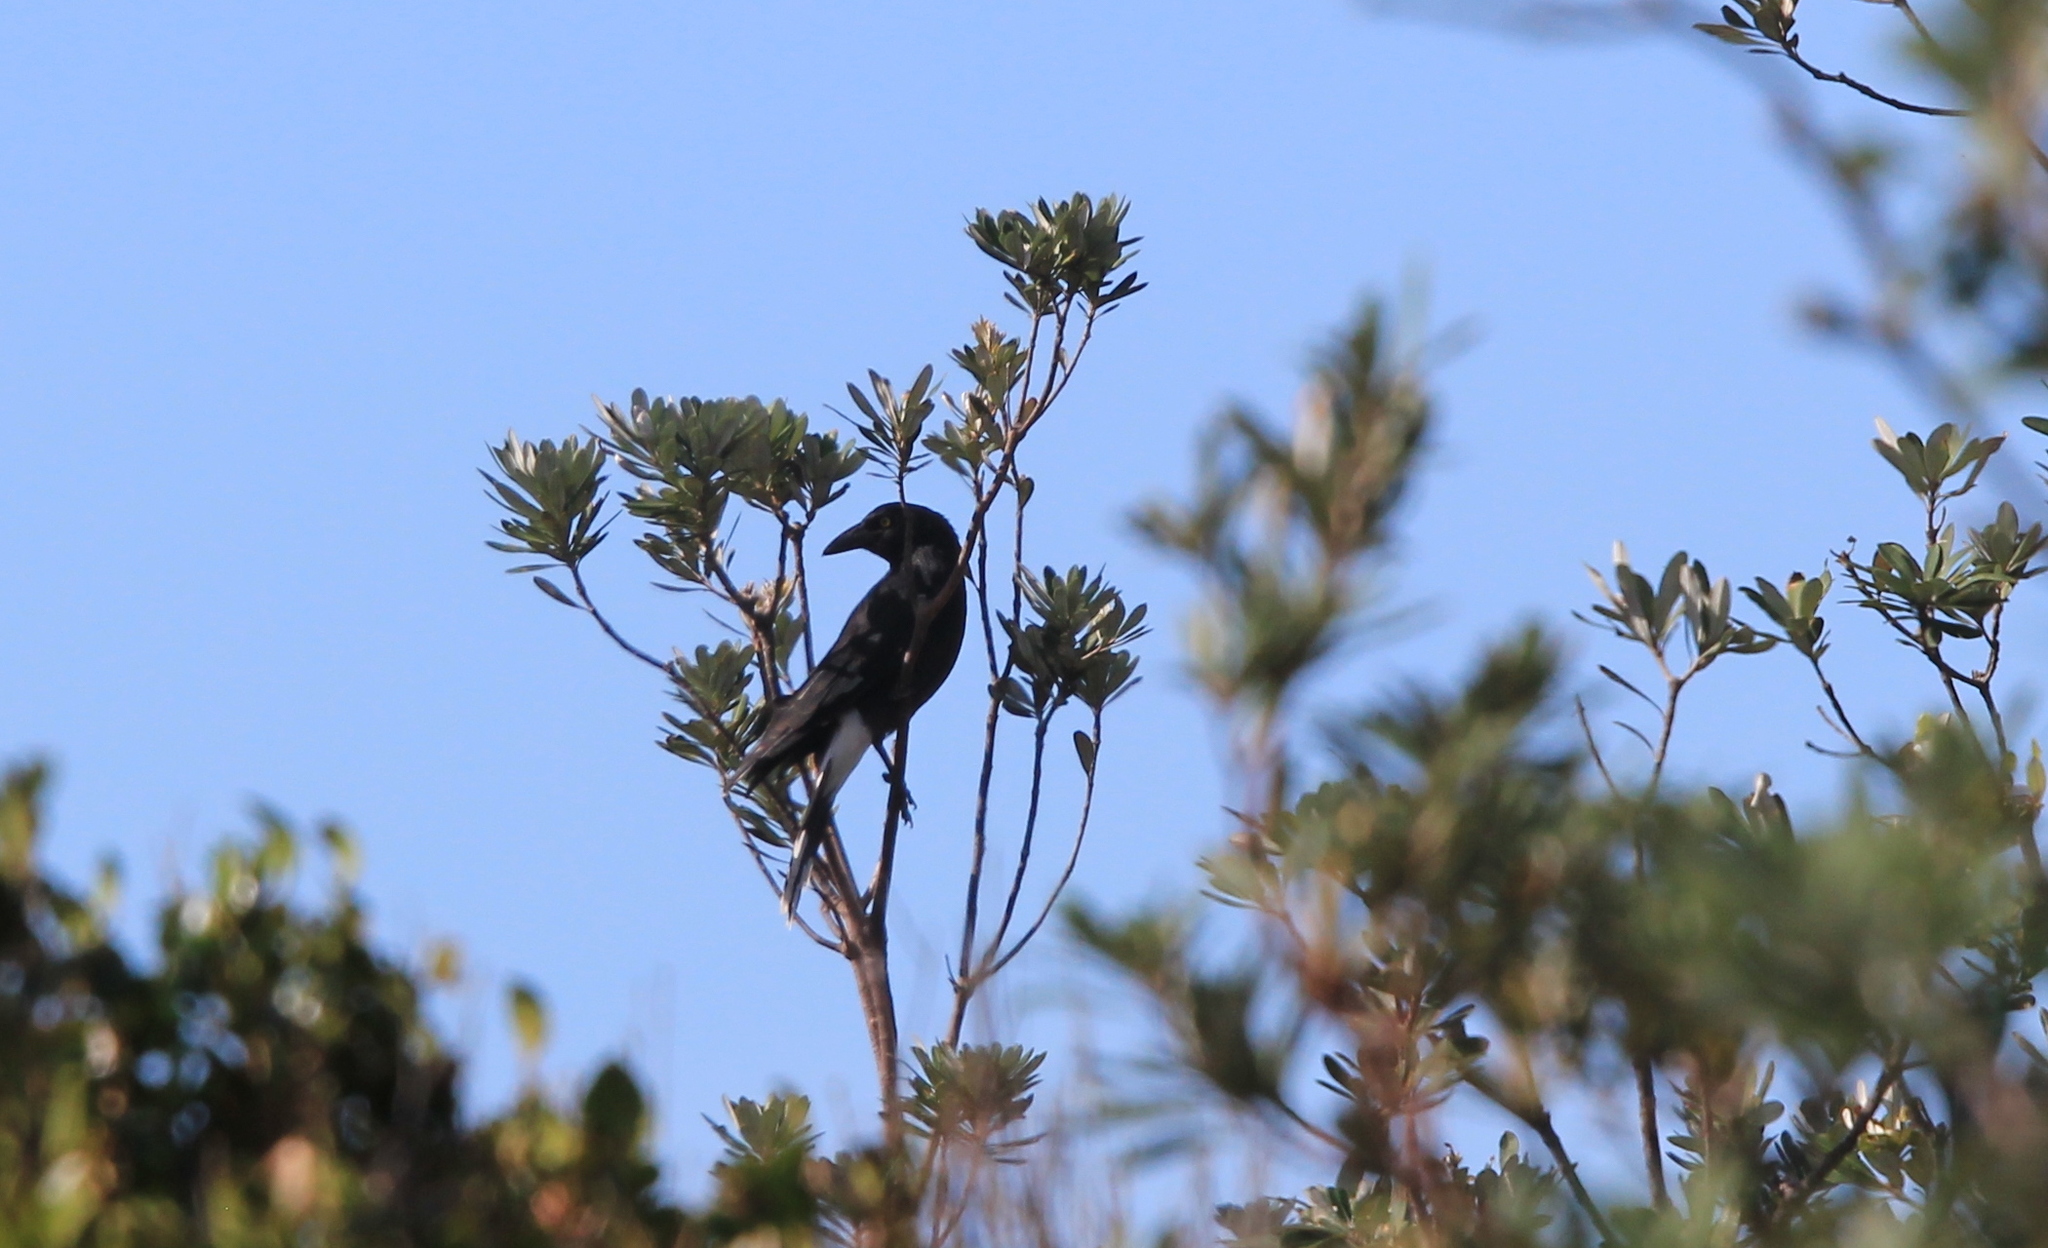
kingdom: Animalia
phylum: Chordata
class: Aves
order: Passeriformes
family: Cracticidae
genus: Strepera
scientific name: Strepera graculina
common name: Pied currawong
